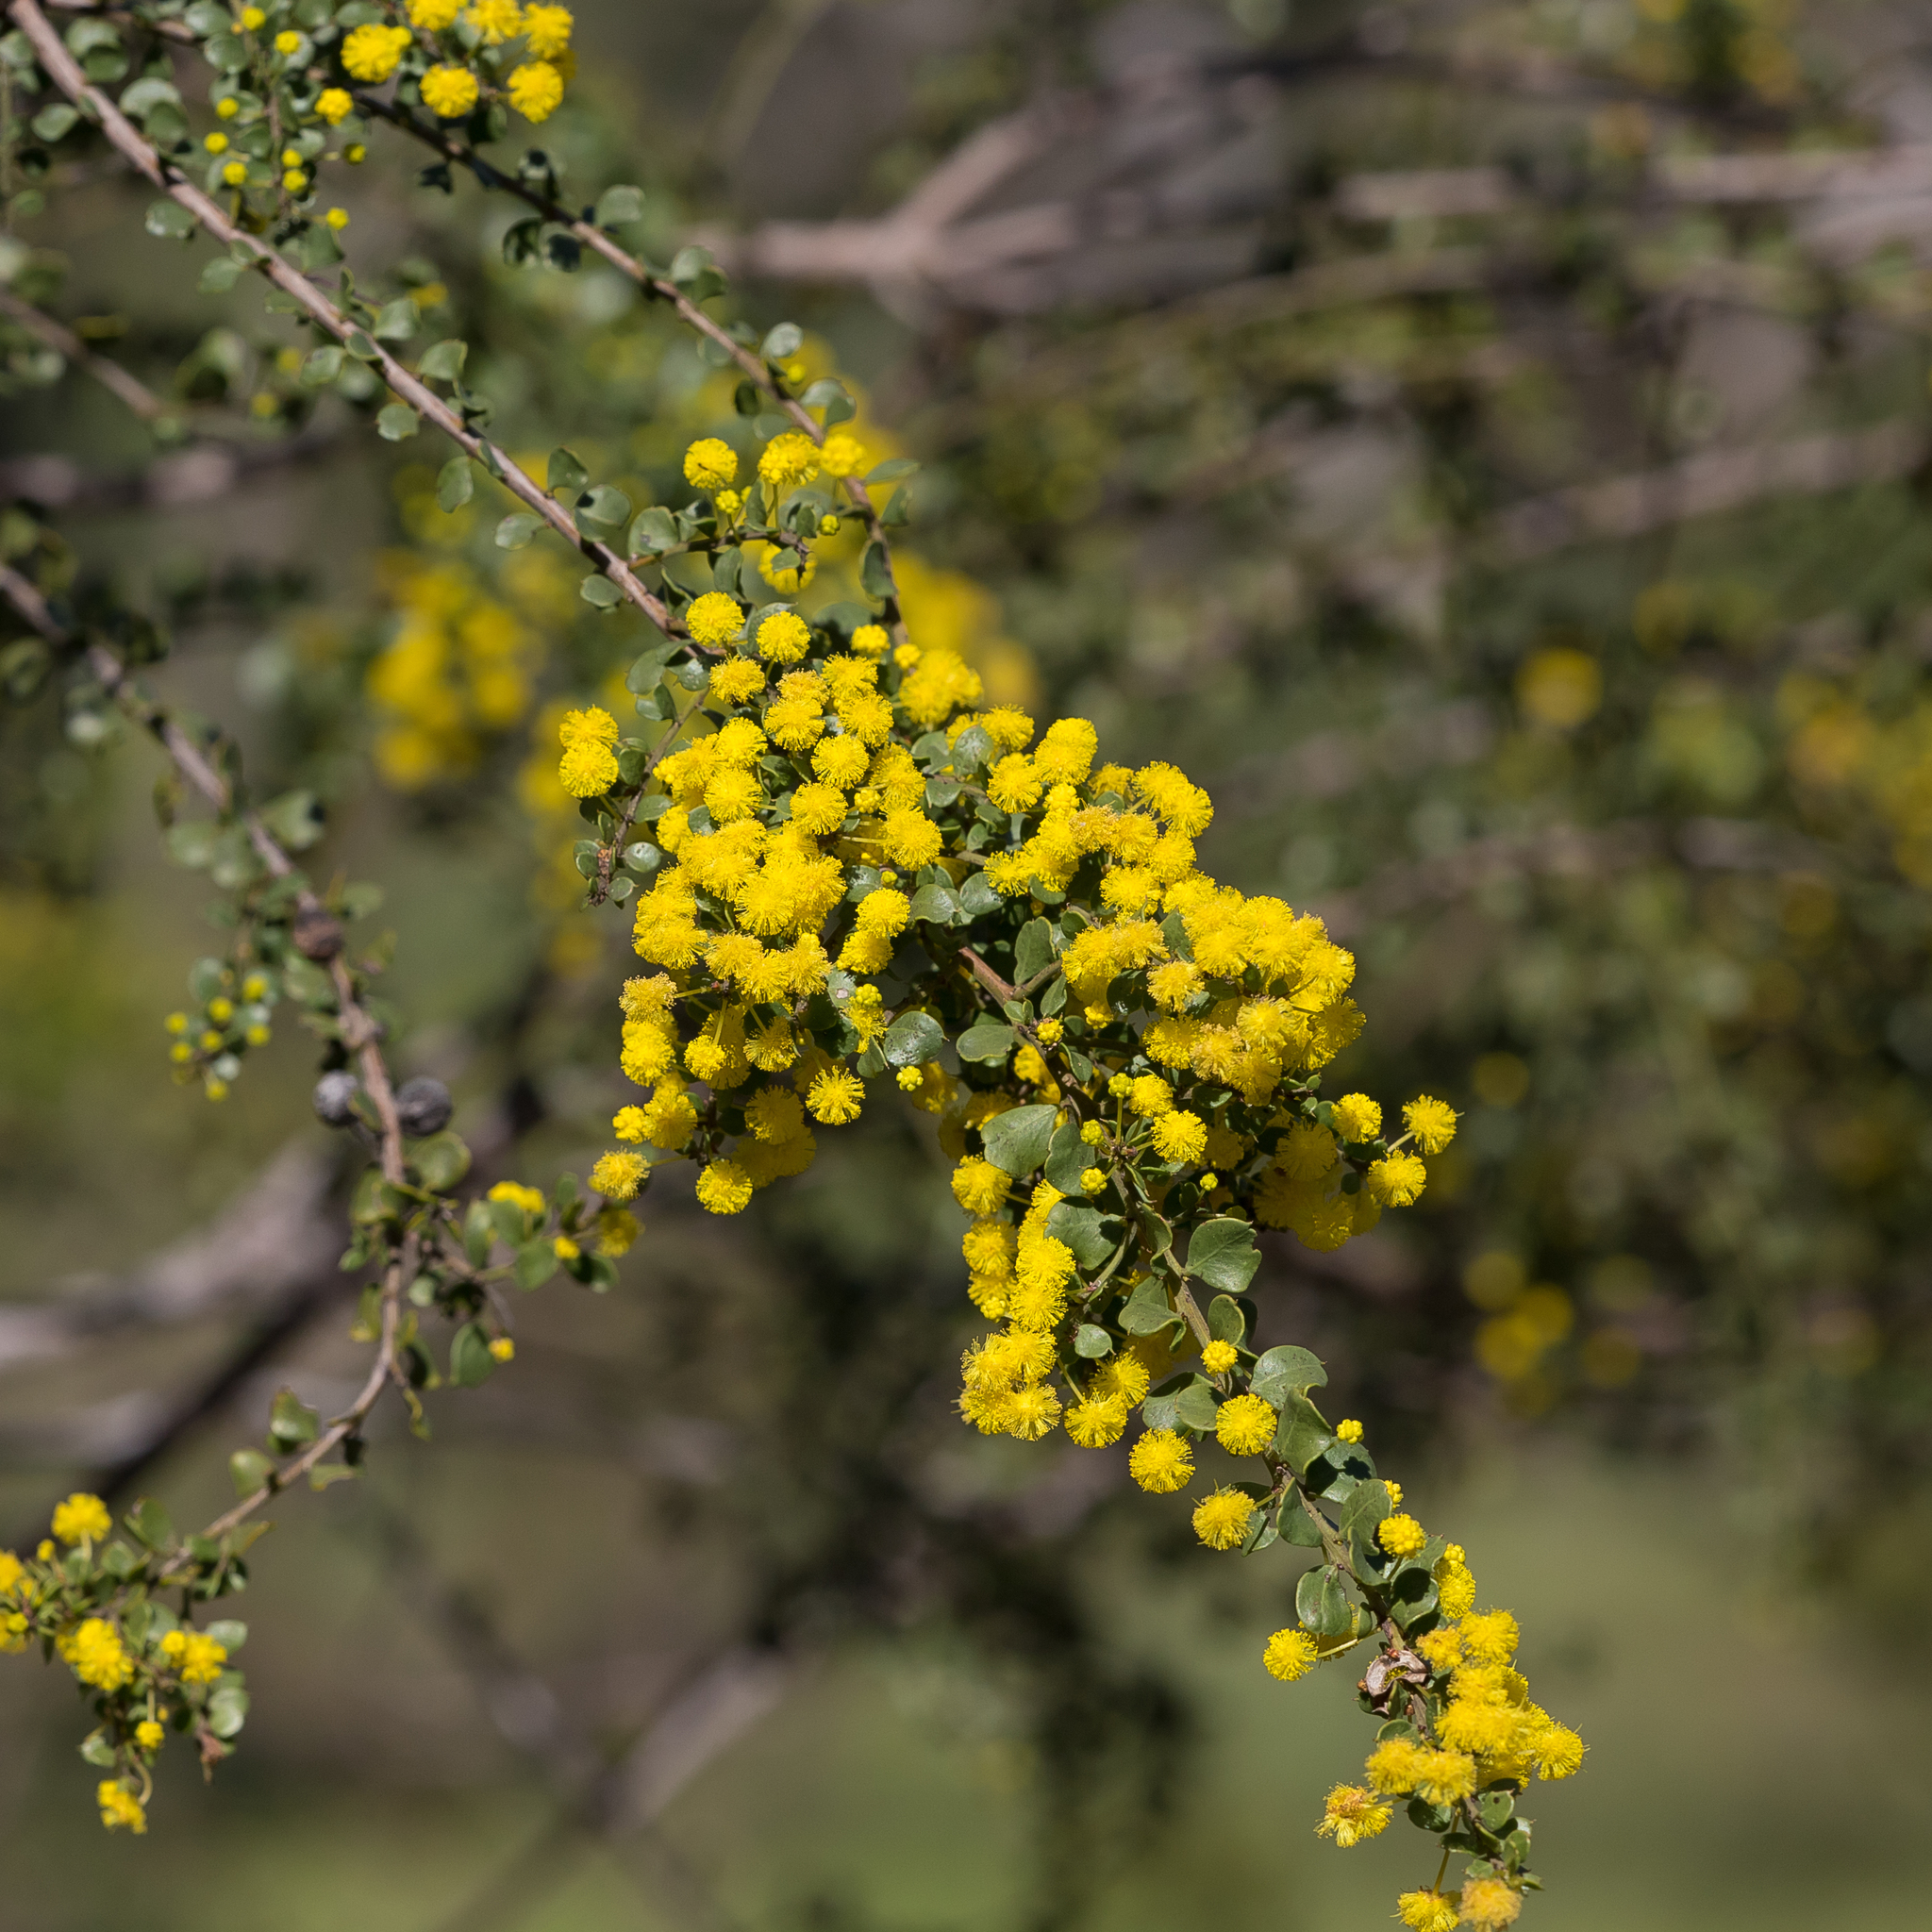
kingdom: Plantae
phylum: Tracheophyta
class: Magnoliopsida
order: Fabales
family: Fabaceae
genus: Acacia
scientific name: Acacia acinacea
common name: Gold-dust acacia
